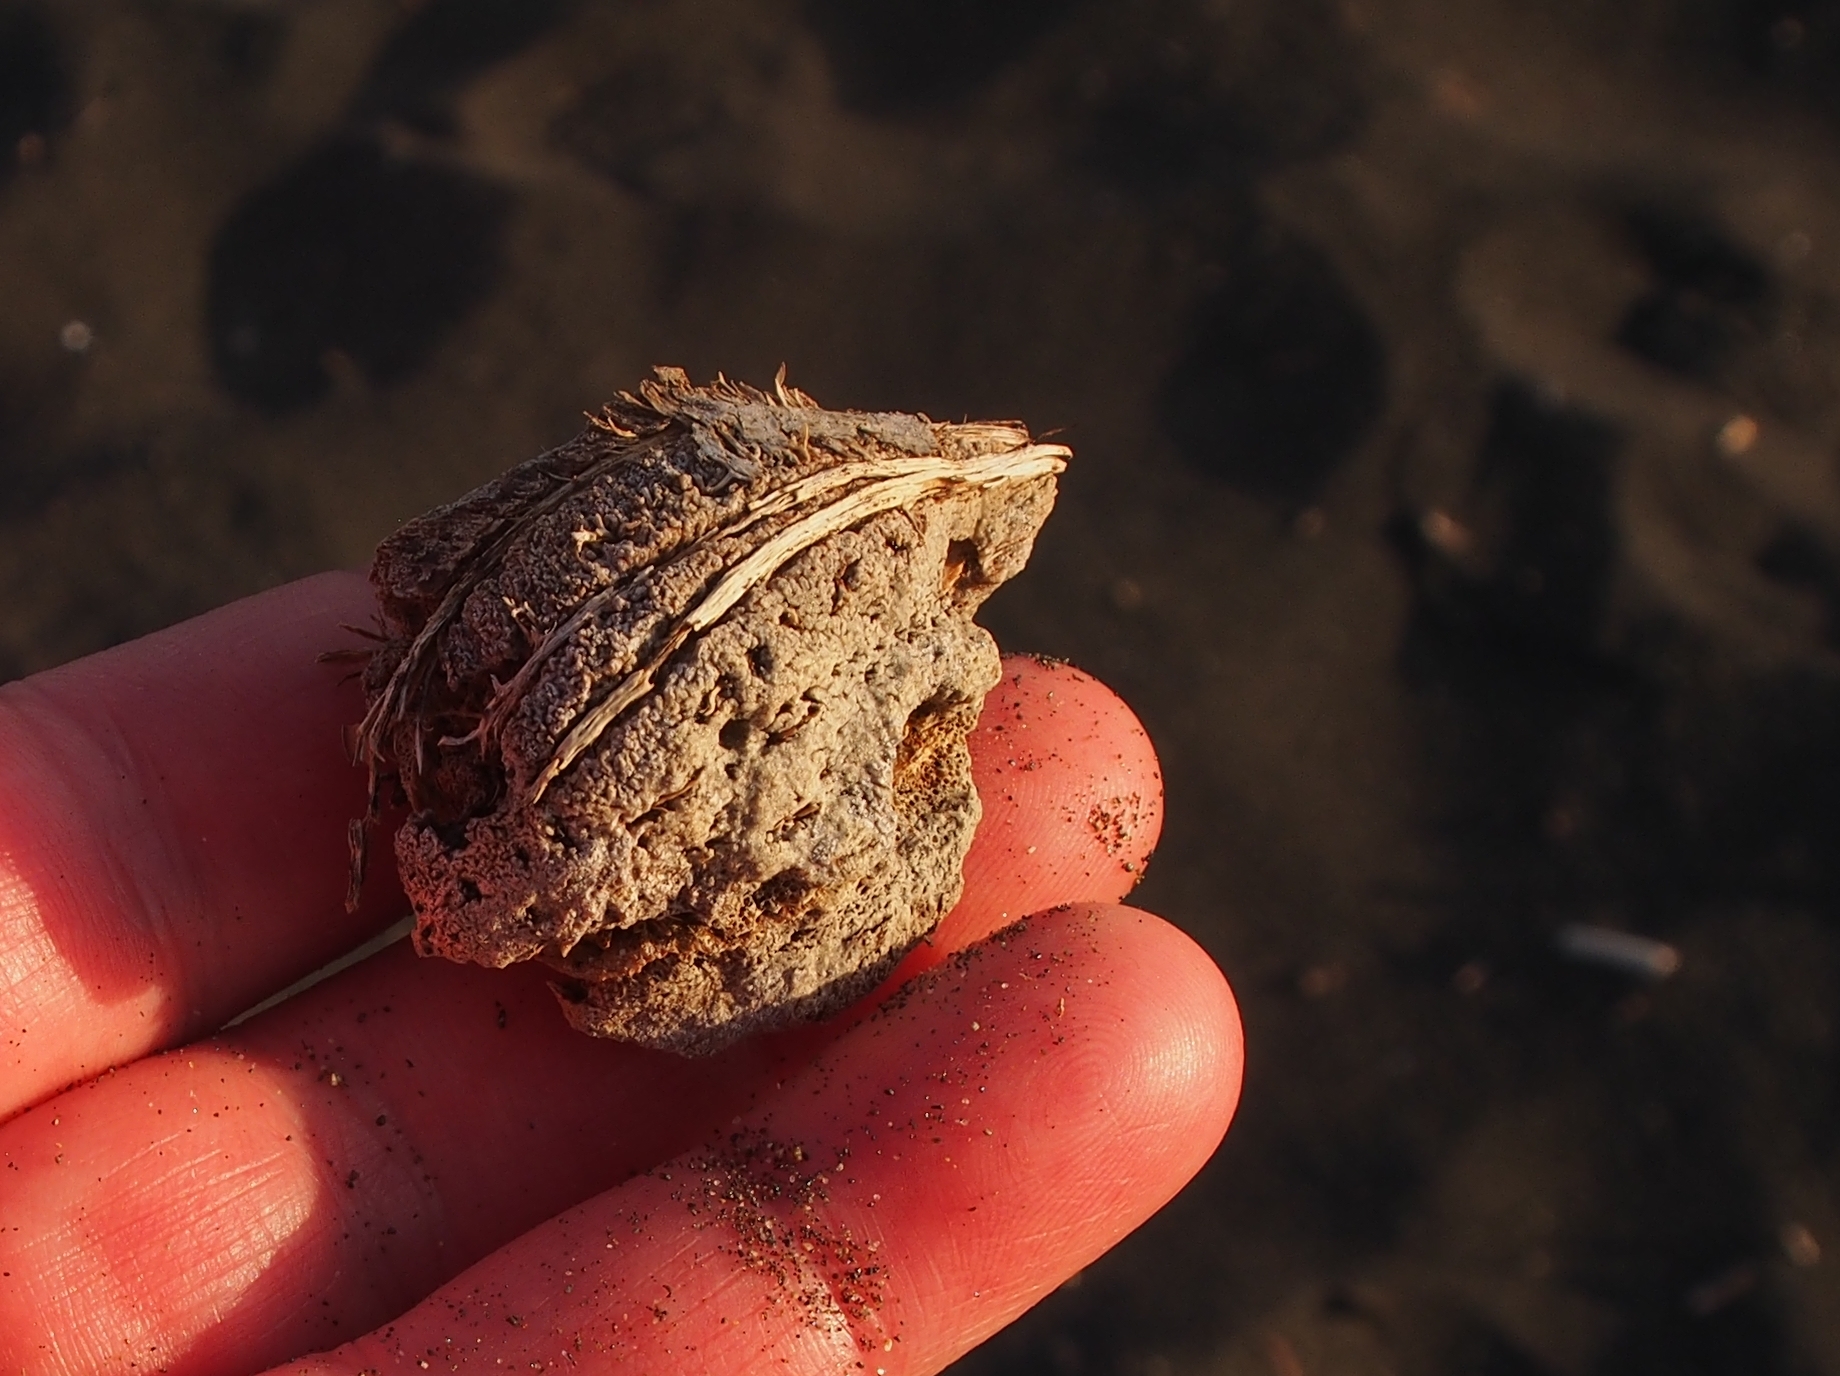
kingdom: Plantae
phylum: Tracheophyta
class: Magnoliopsida
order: Myrtales
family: Combretaceae
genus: Terminalia
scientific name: Terminalia catappa
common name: Tropical almond
